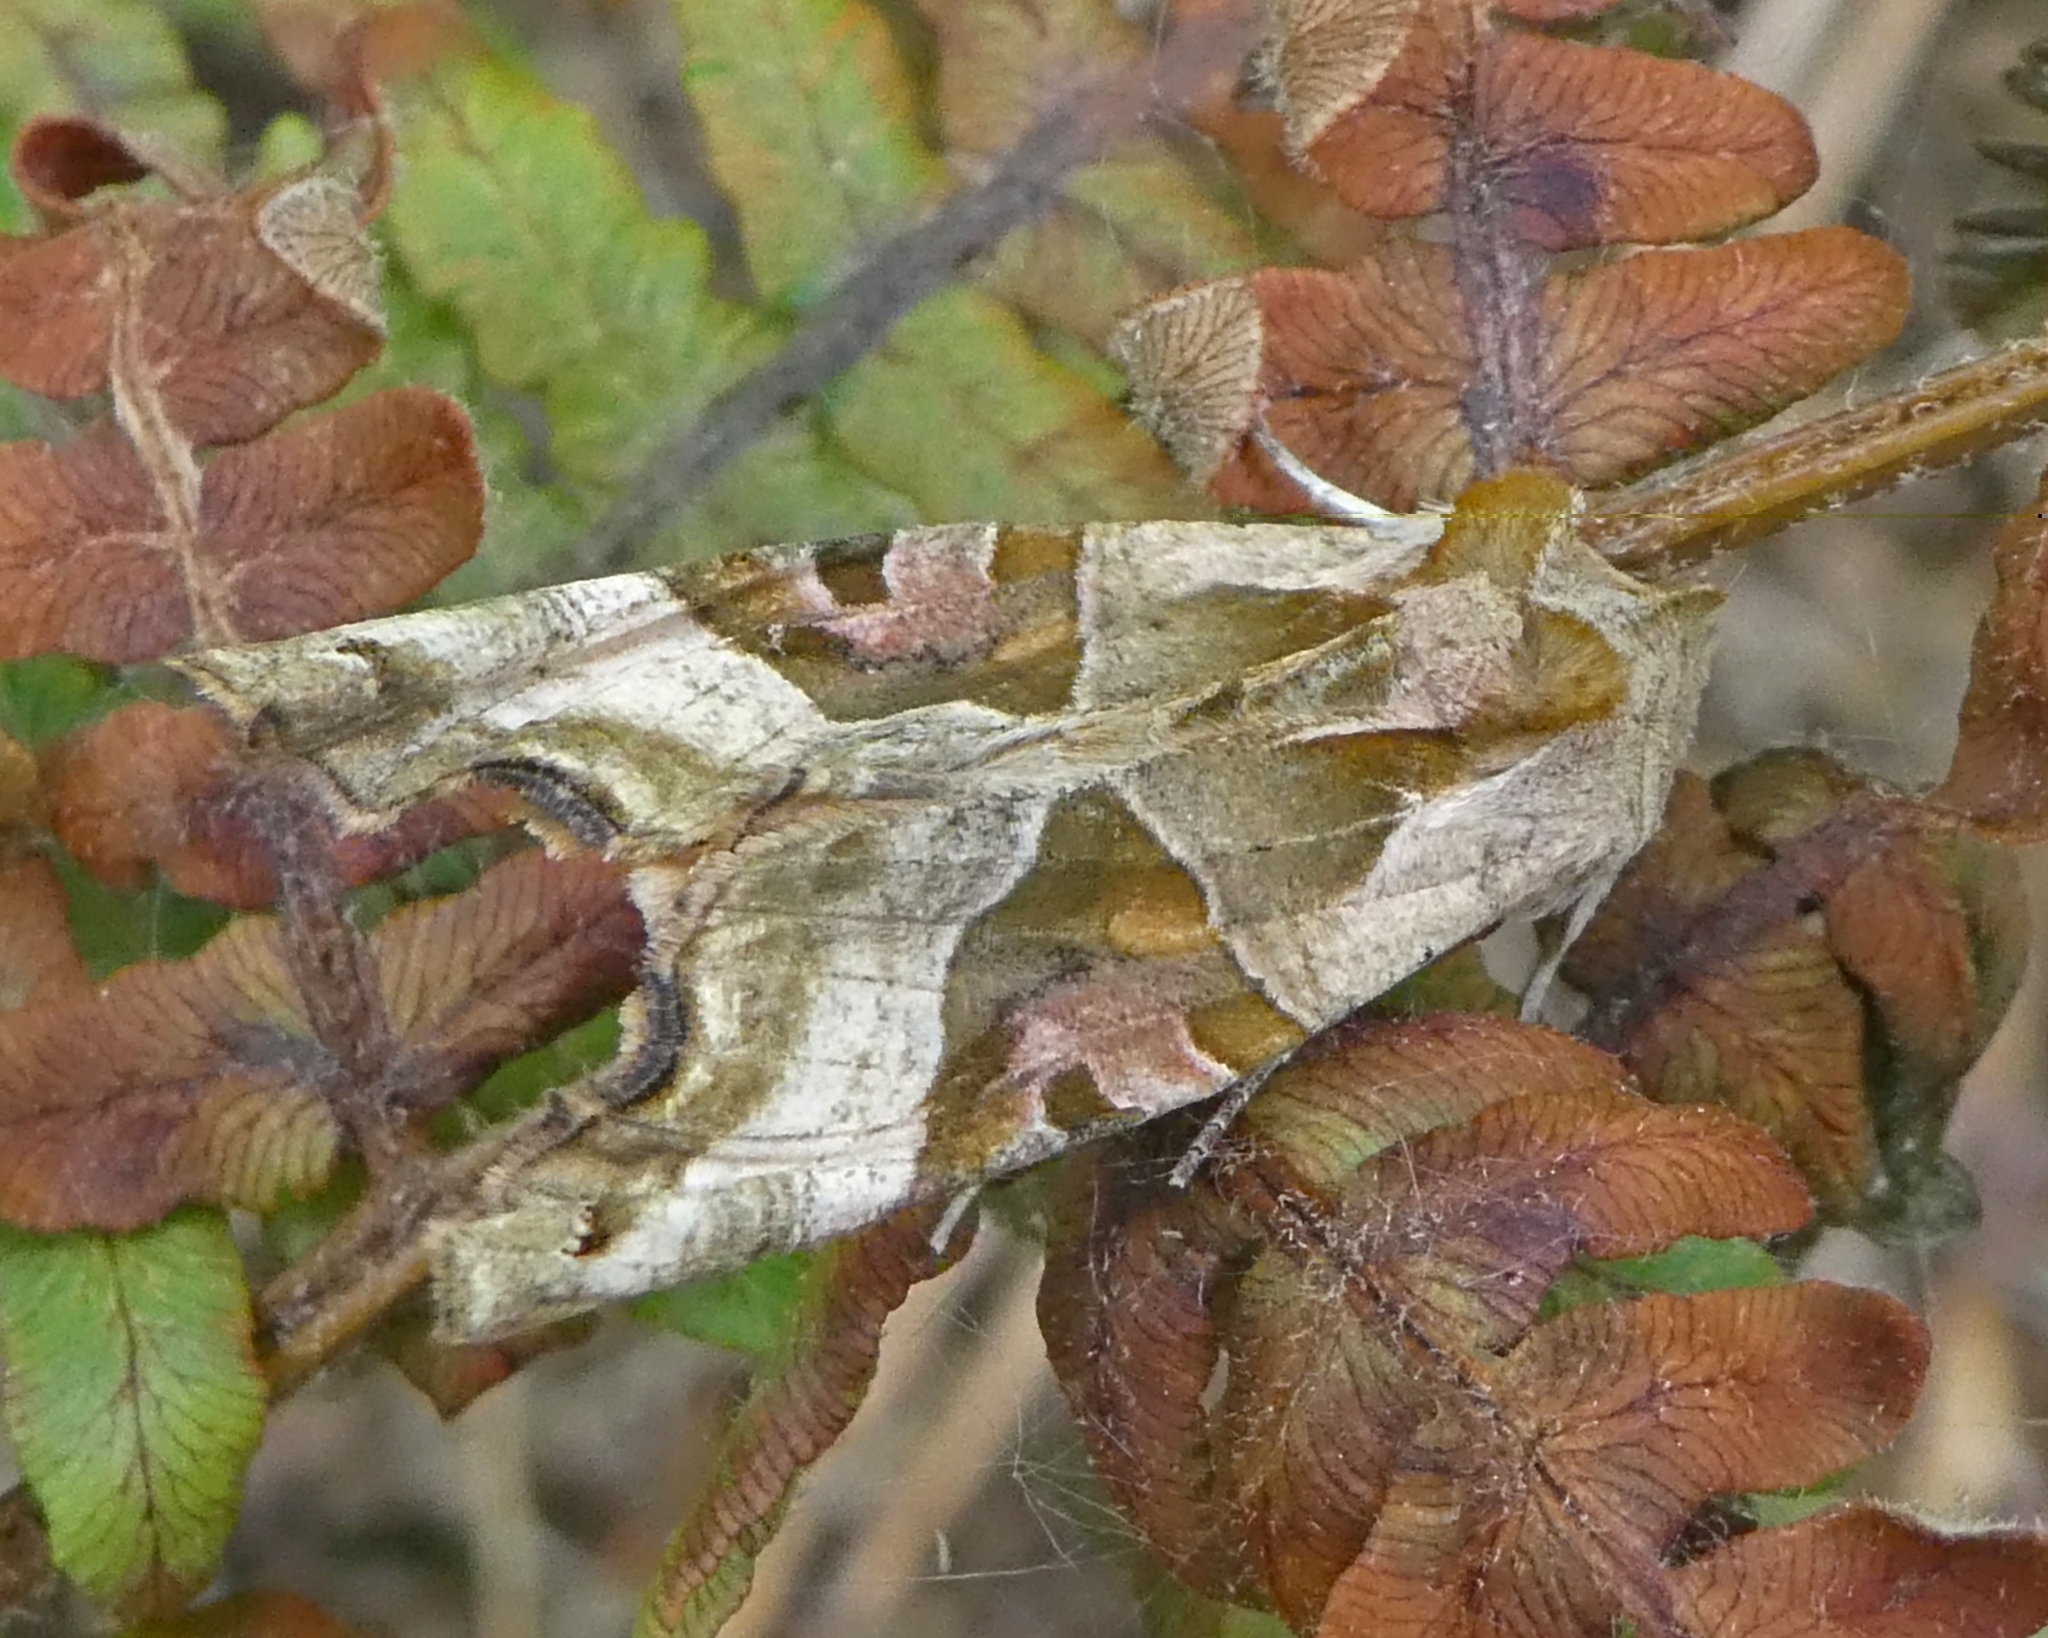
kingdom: Animalia
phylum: Arthropoda
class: Insecta
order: Lepidoptera
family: Noctuidae
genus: Phlogophora
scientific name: Phlogophora meticulosa
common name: Angle shades
